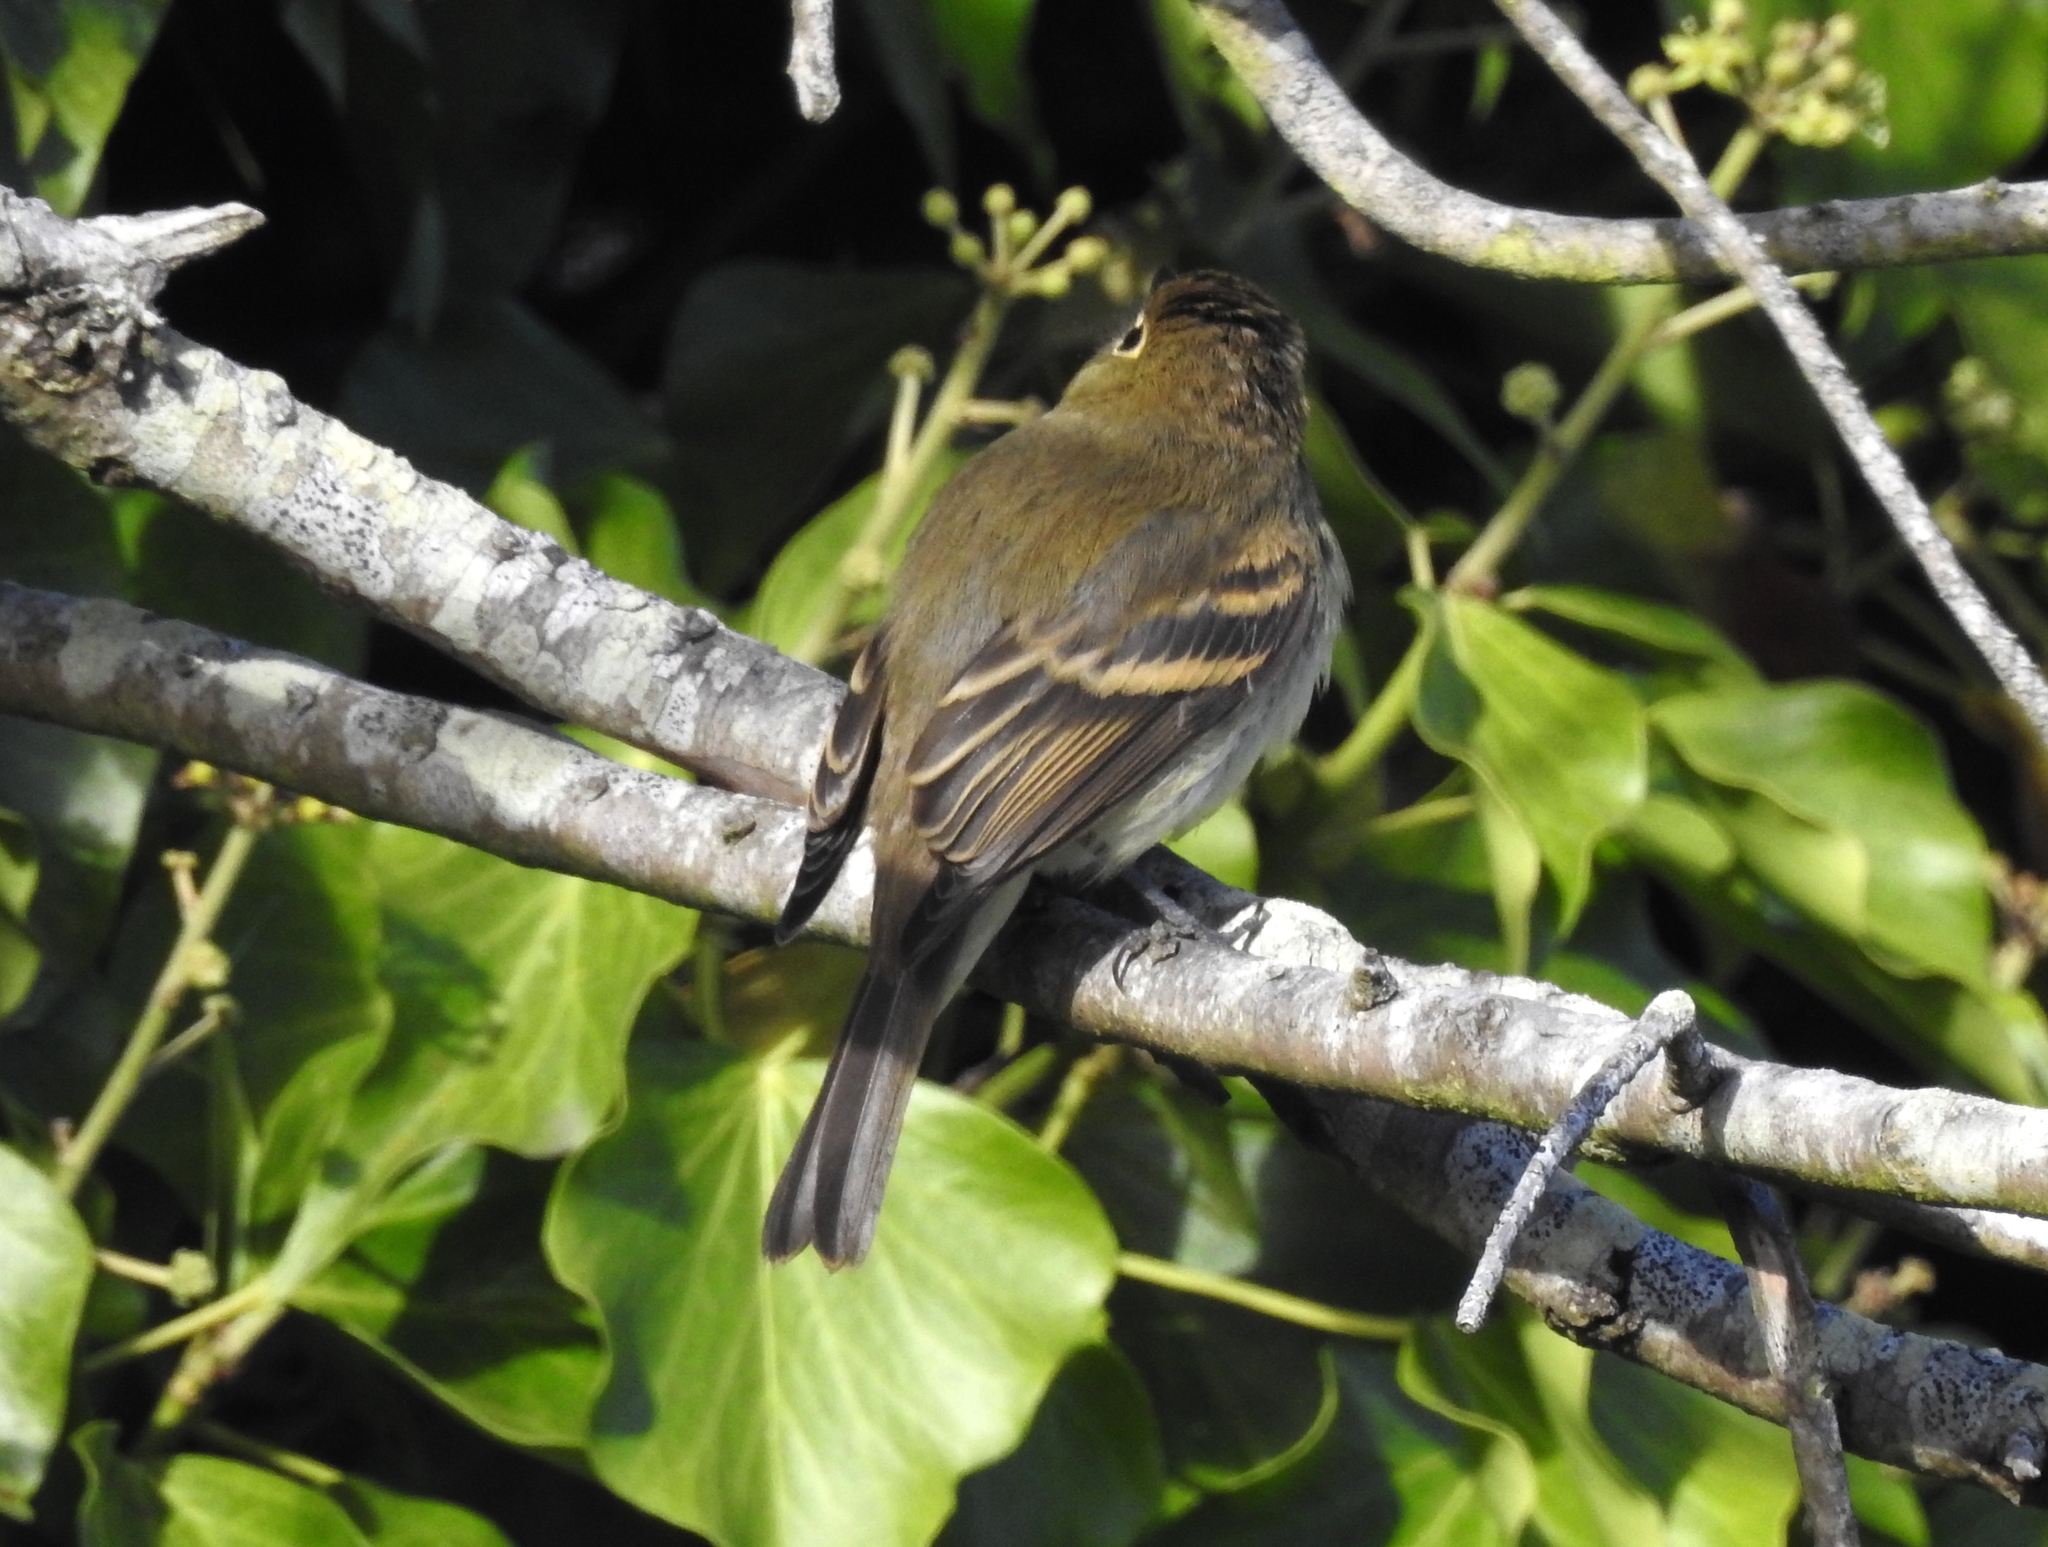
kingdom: Animalia
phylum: Chordata
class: Aves
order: Passeriformes
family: Tyrannidae
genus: Empidonax
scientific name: Empidonax difficilis
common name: Pacific-slope flycatcher
